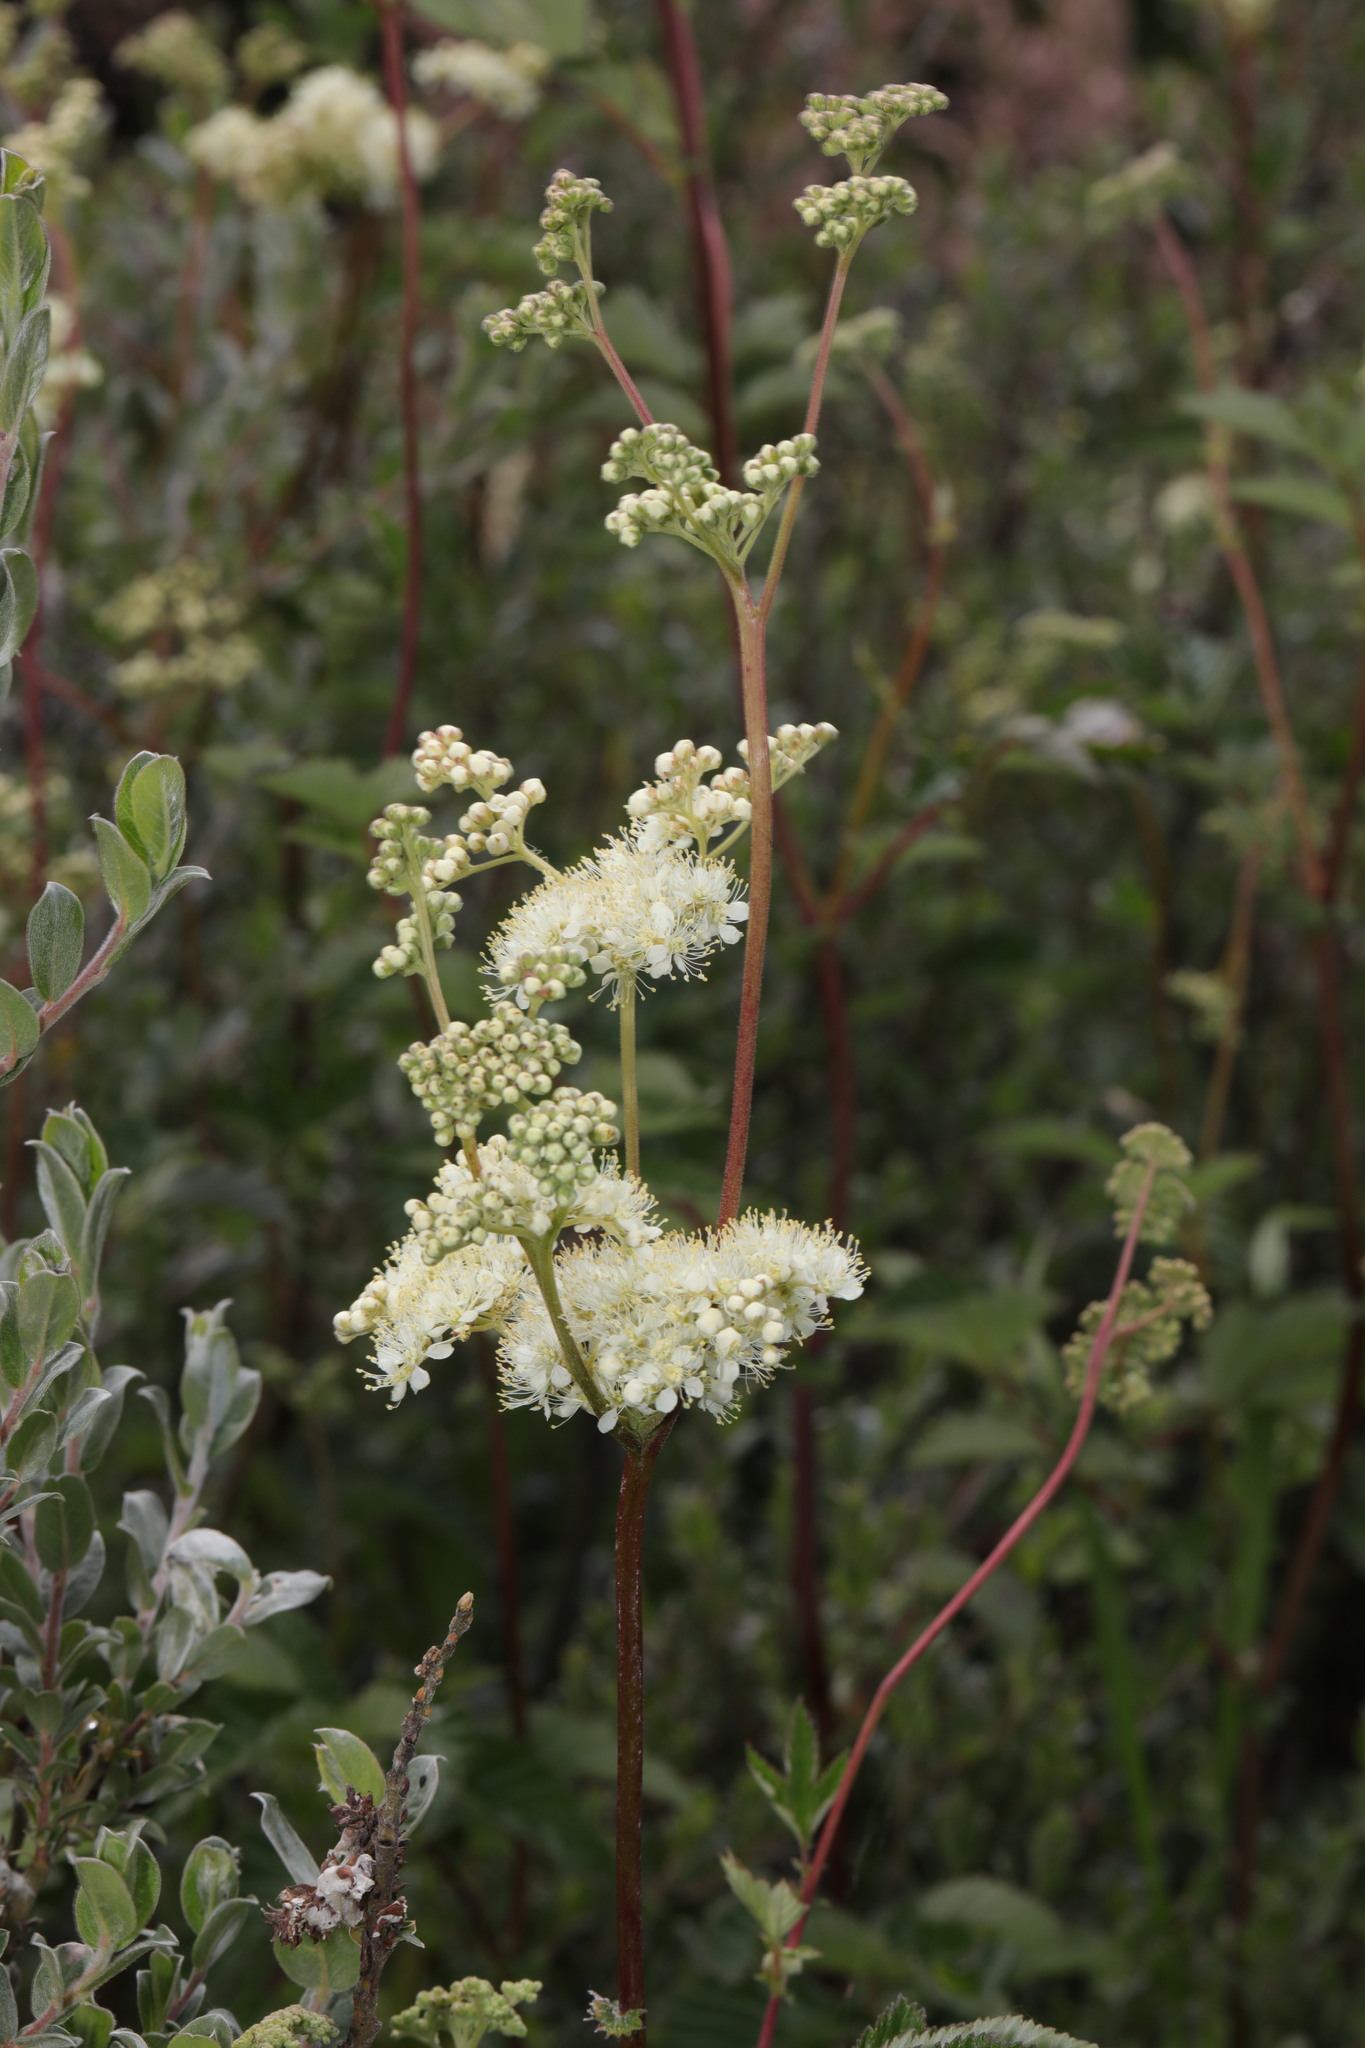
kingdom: Plantae
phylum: Tracheophyta
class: Magnoliopsida
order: Rosales
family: Rosaceae
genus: Filipendula
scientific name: Filipendula ulmaria
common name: Meadowsweet
